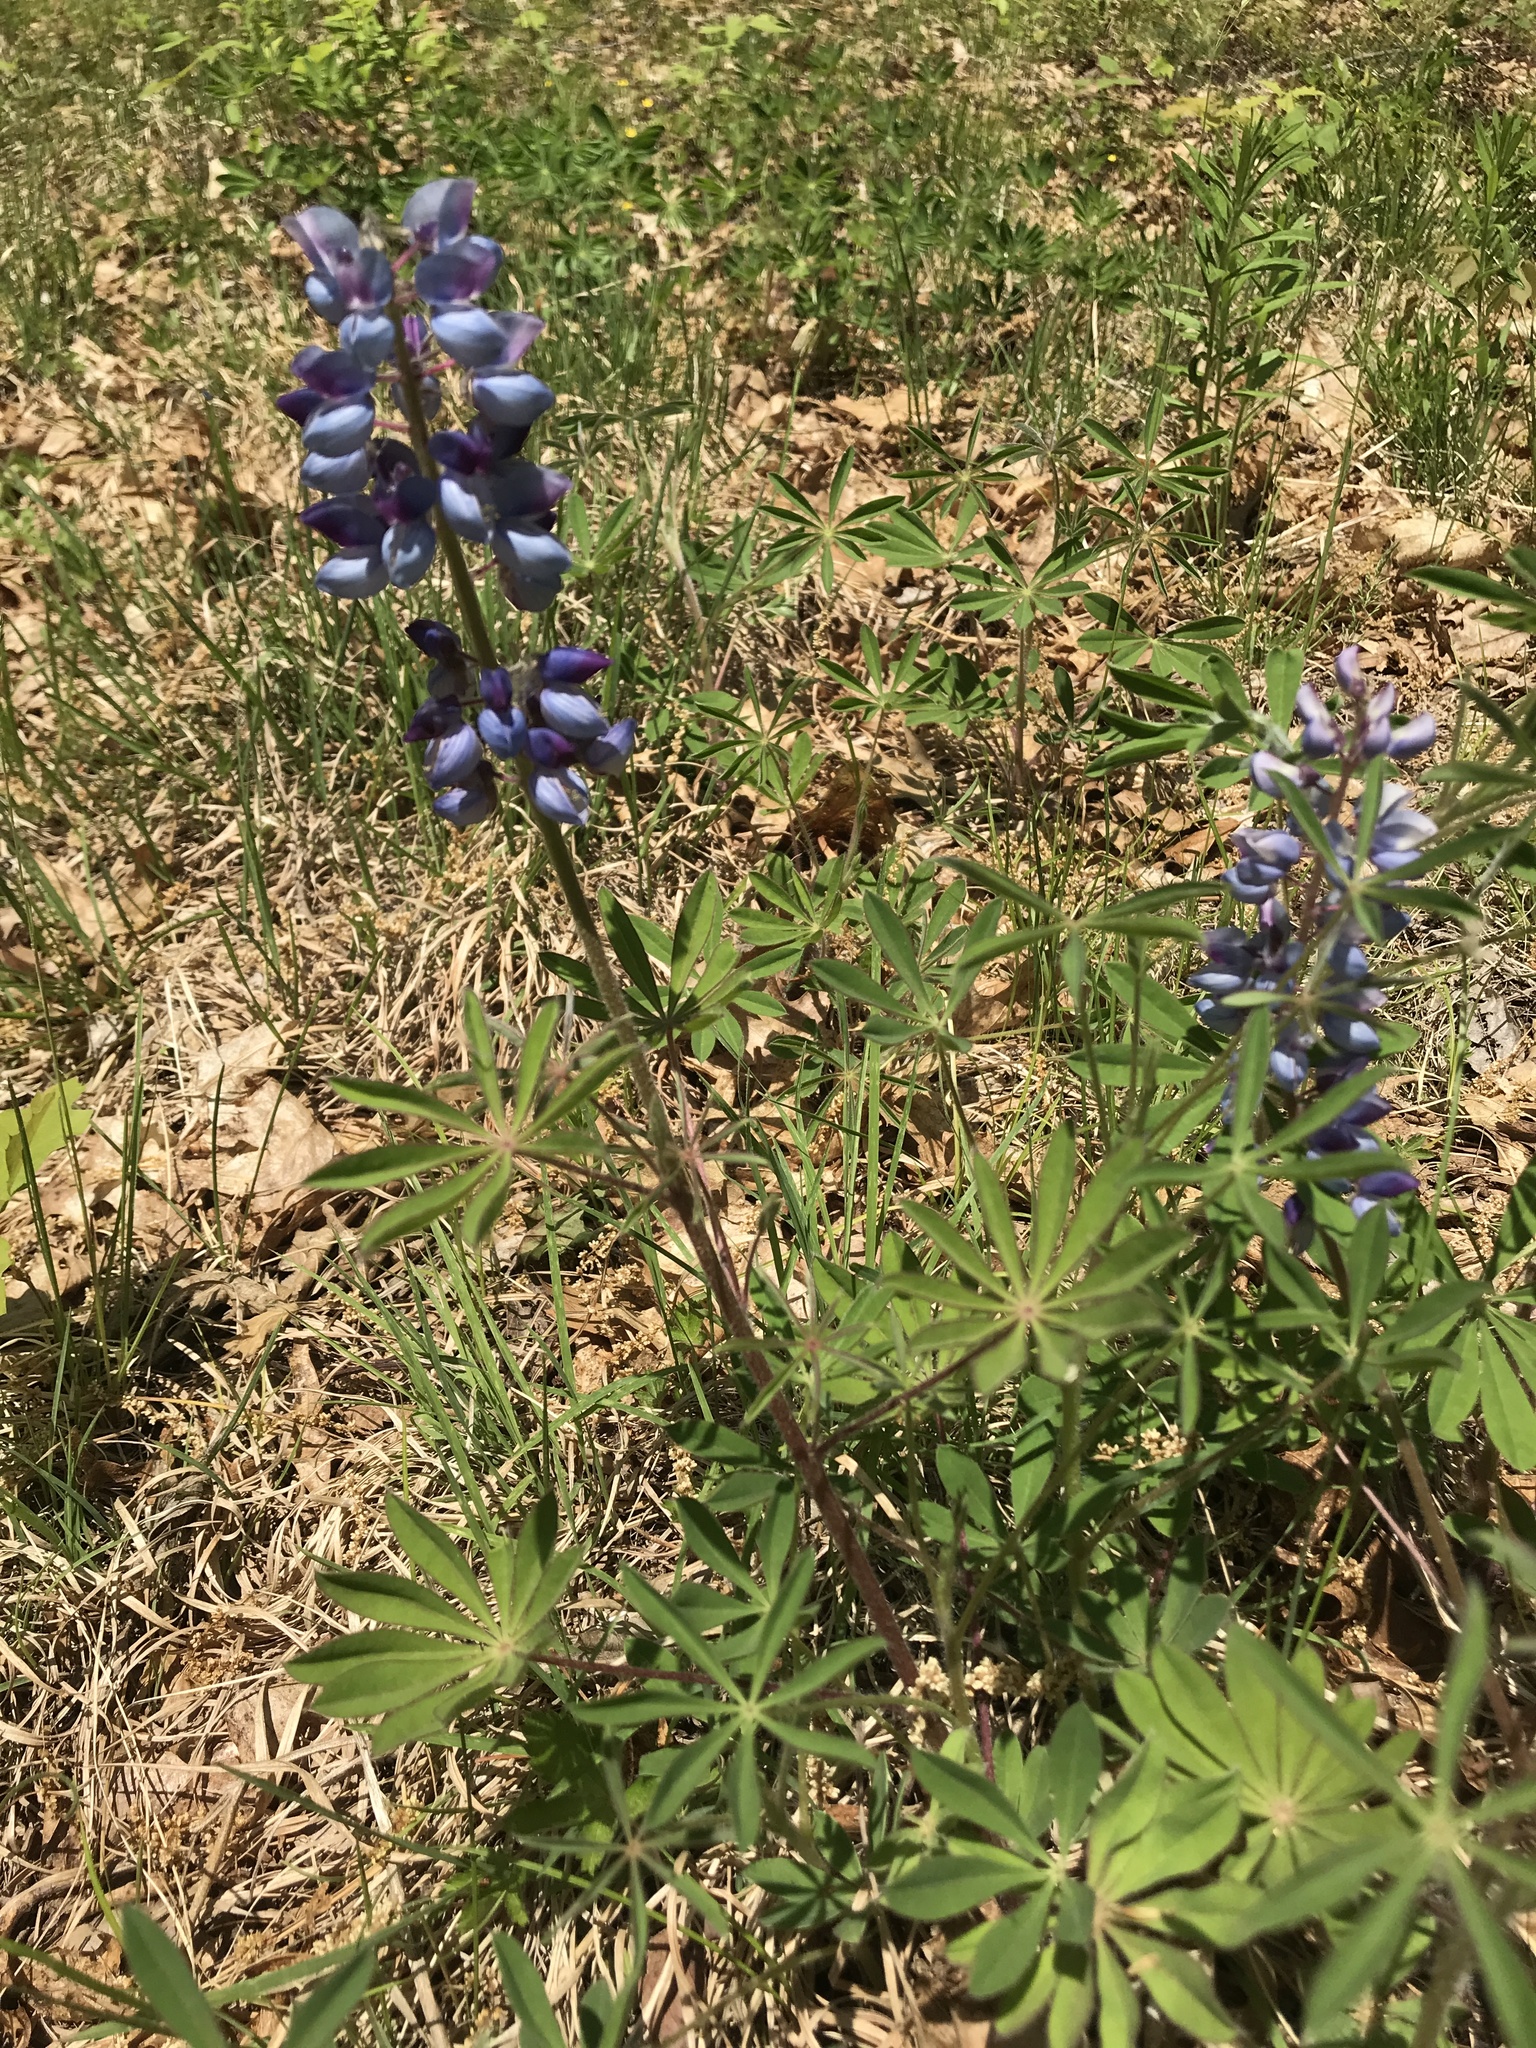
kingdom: Plantae
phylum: Tracheophyta
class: Magnoliopsida
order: Fabales
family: Fabaceae
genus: Lupinus
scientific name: Lupinus perennis
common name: Sundial lupine
